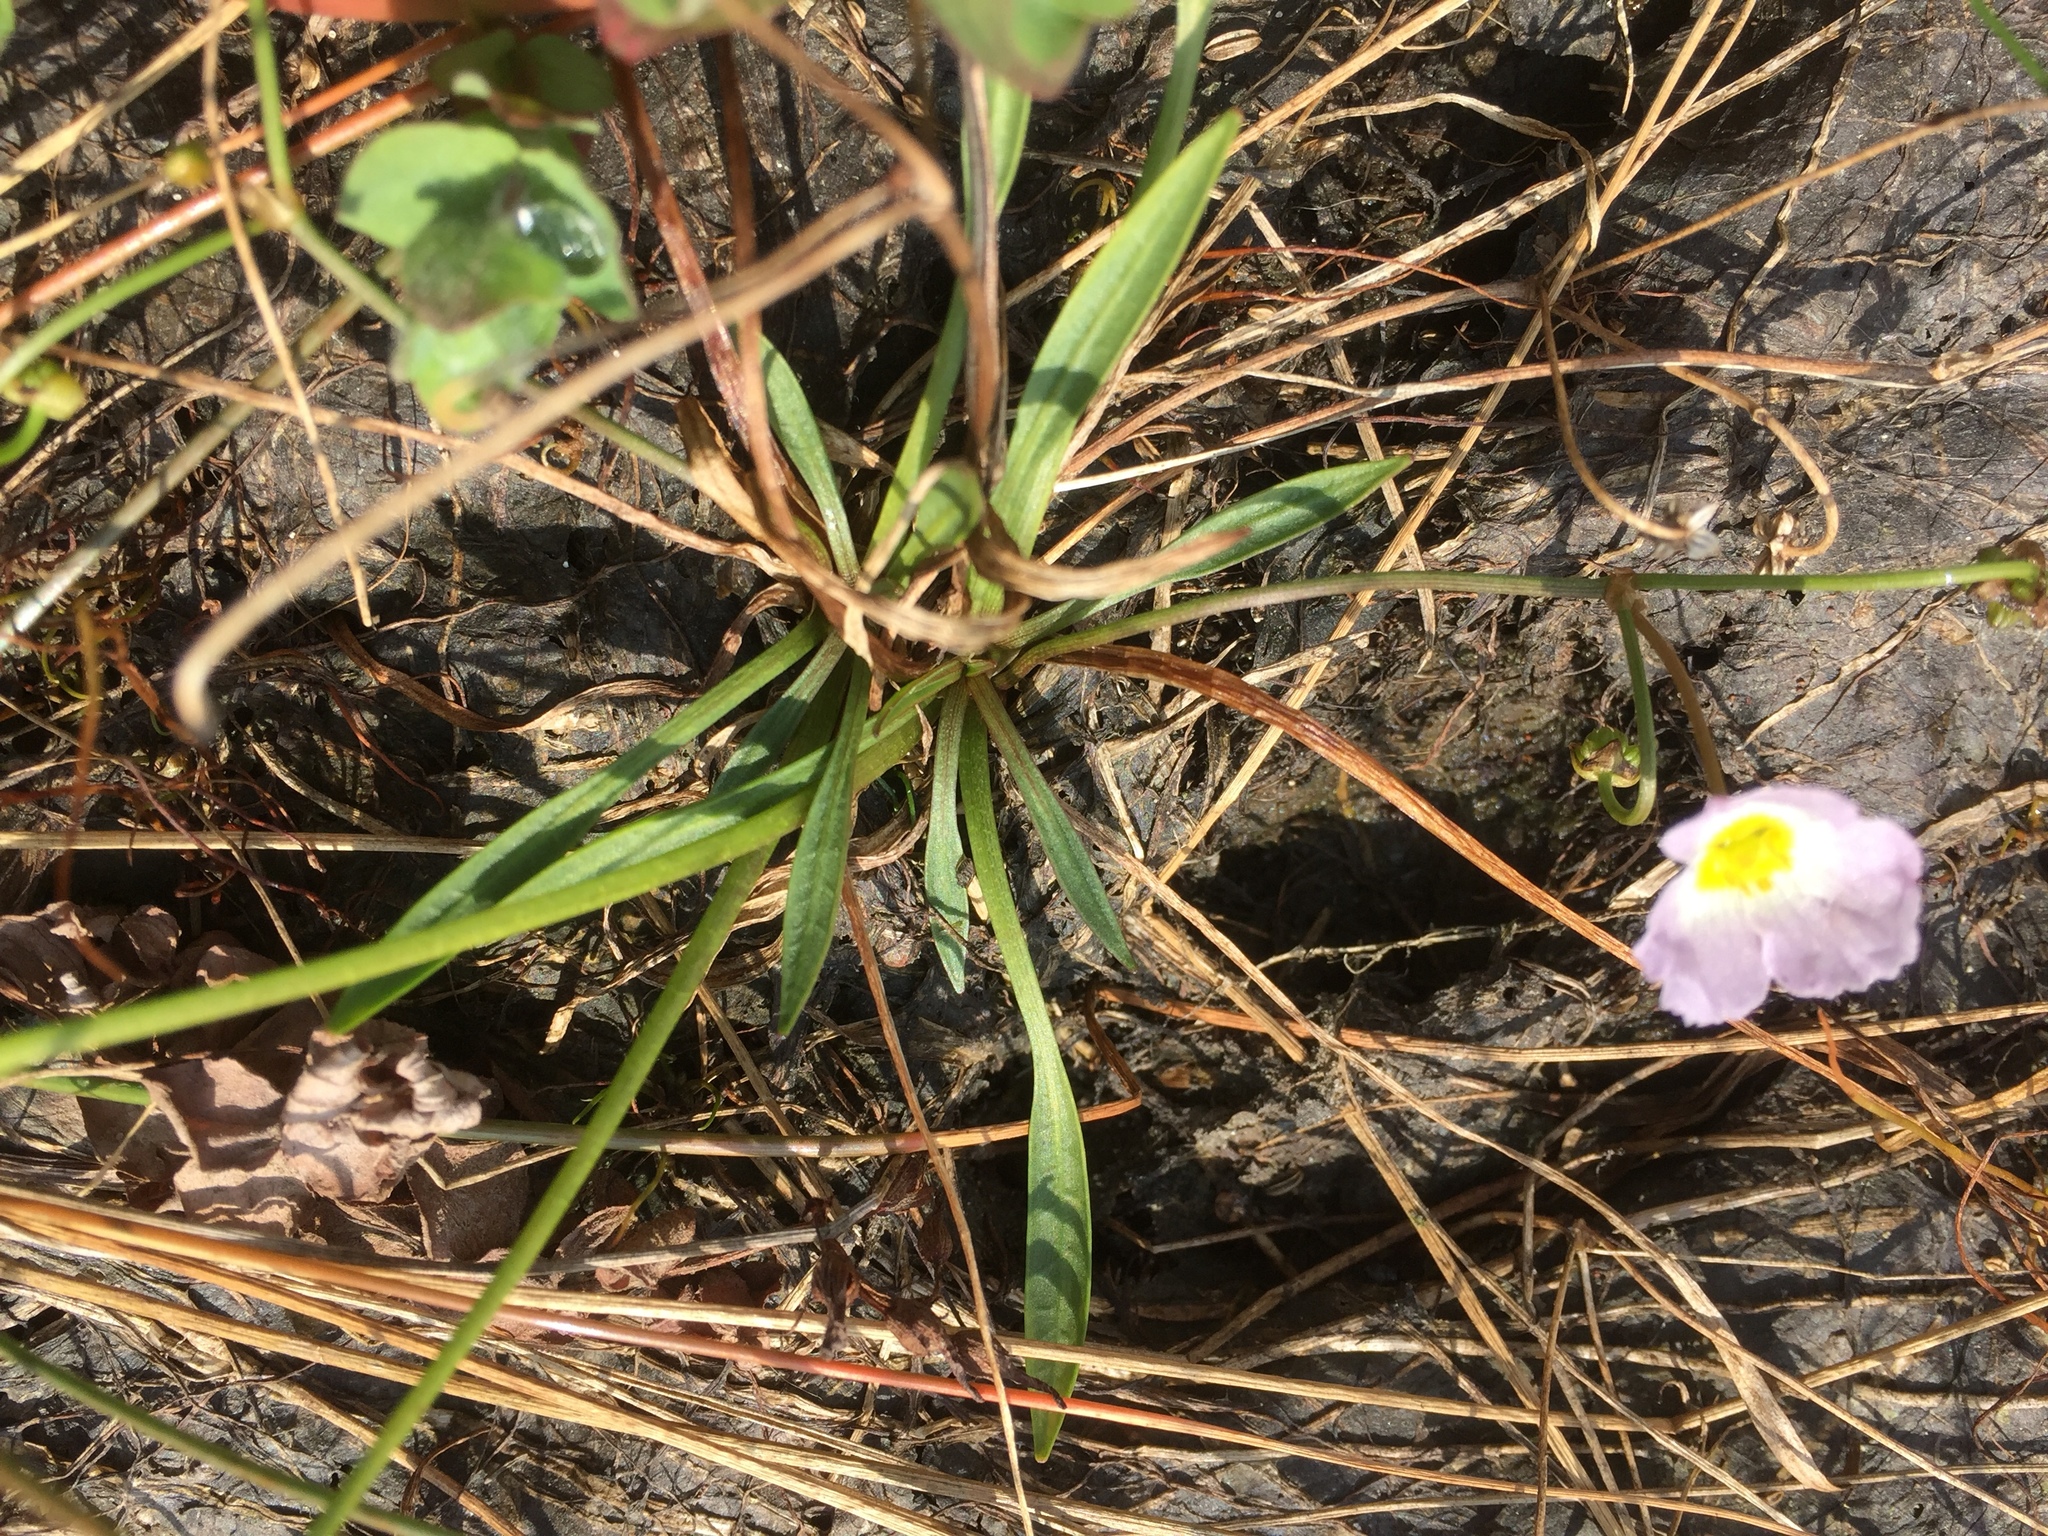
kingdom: Plantae
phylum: Tracheophyta
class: Liliopsida
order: Alismatales
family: Alismataceae
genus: Baldellia
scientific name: Baldellia ranunculoides
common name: Lesser water-plantain
